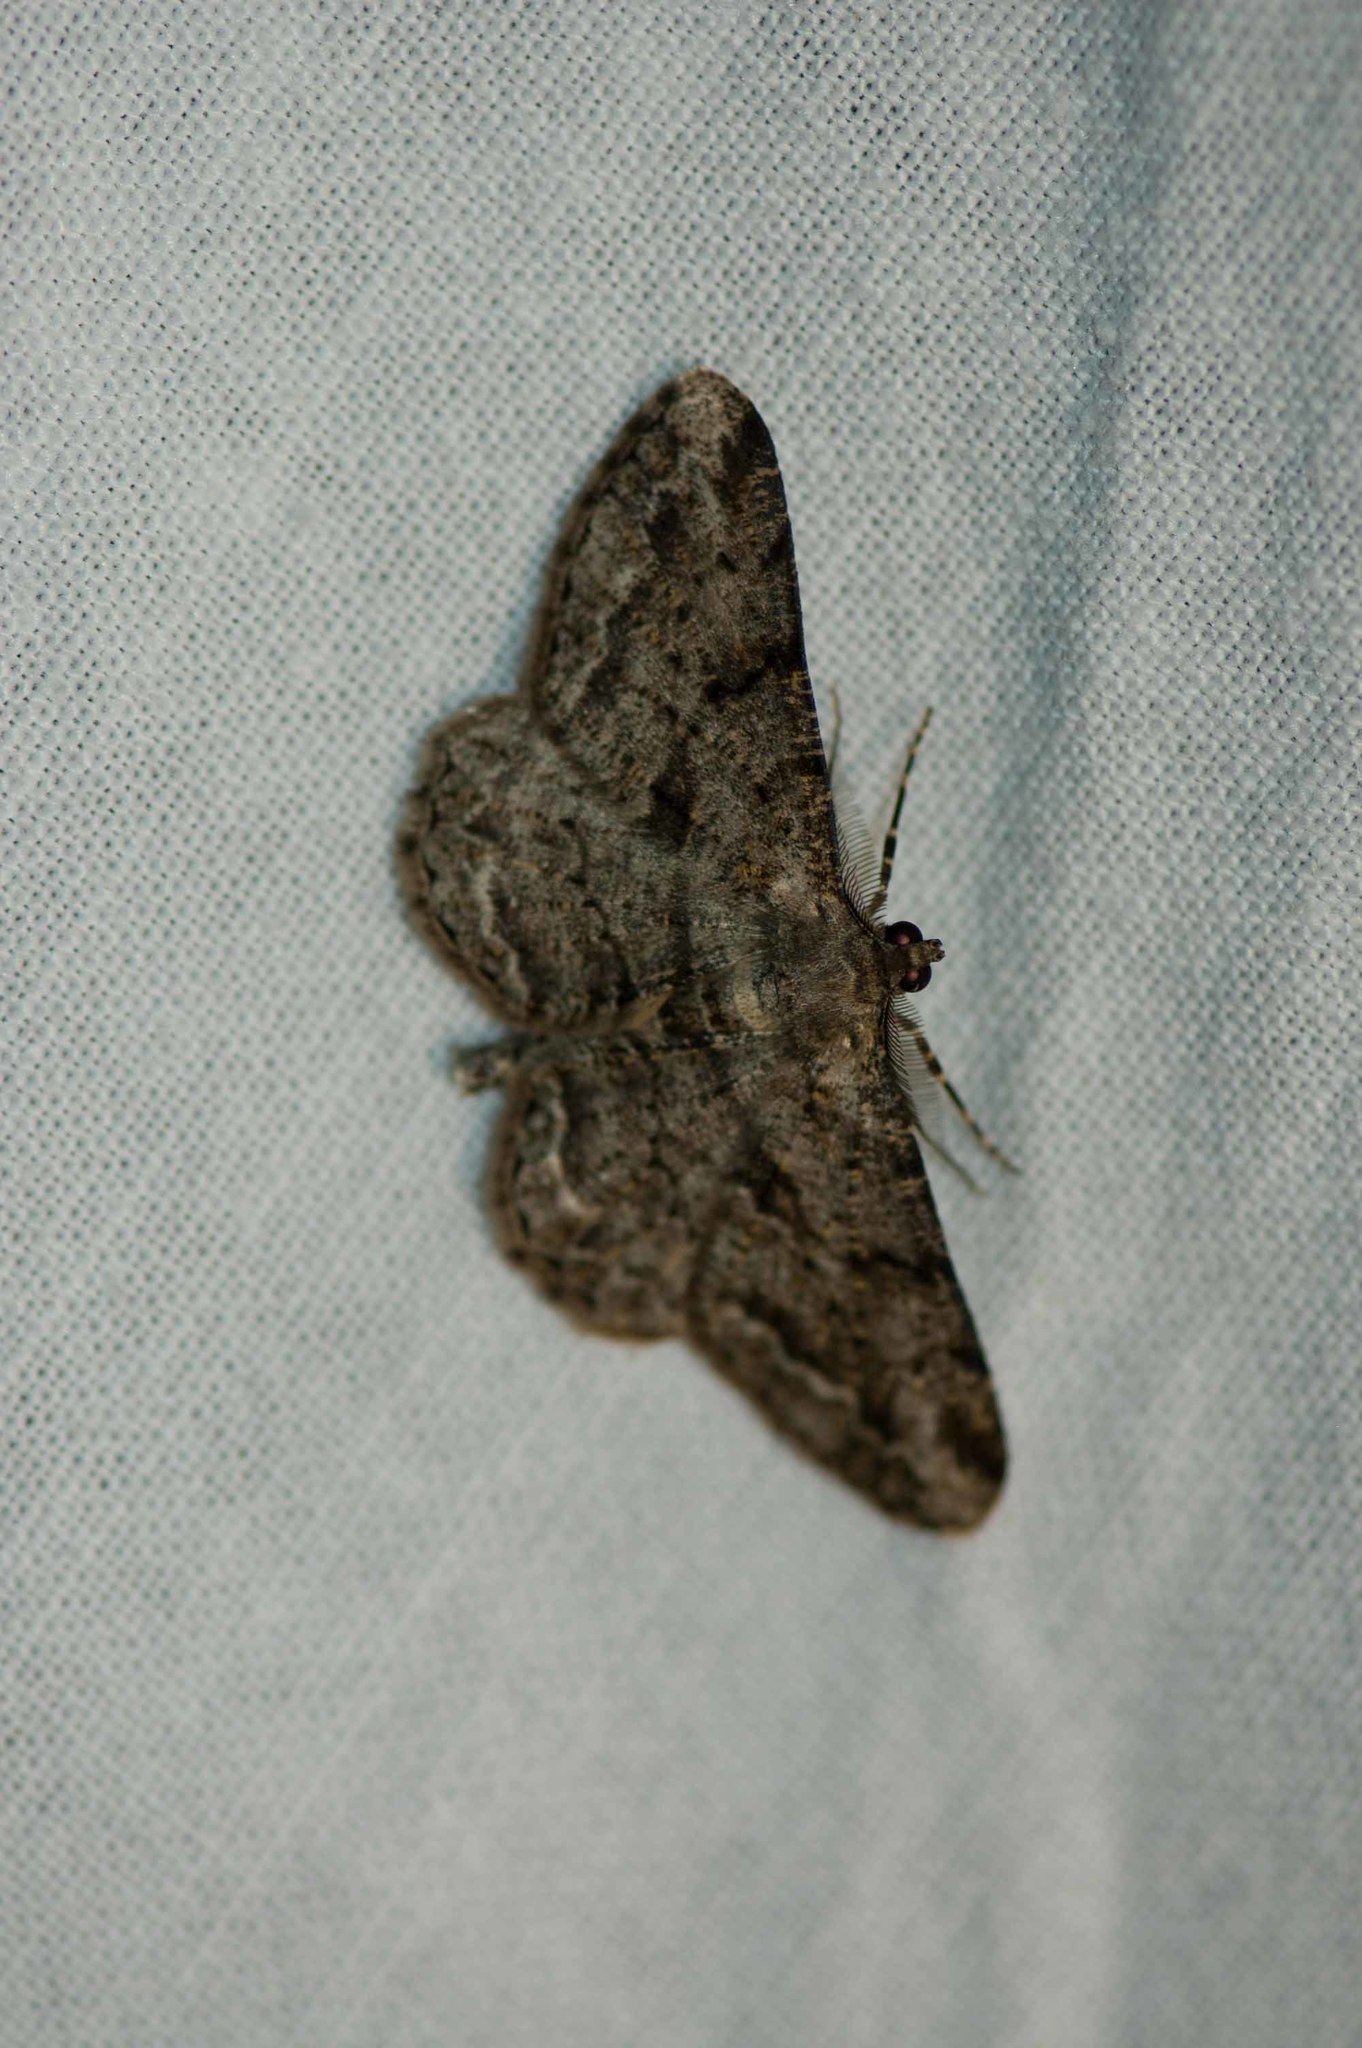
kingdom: Animalia
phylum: Arthropoda
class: Insecta
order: Lepidoptera
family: Geometridae
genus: Peribatodes
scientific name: Peribatodes rhomboidaria
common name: Willow beauty
